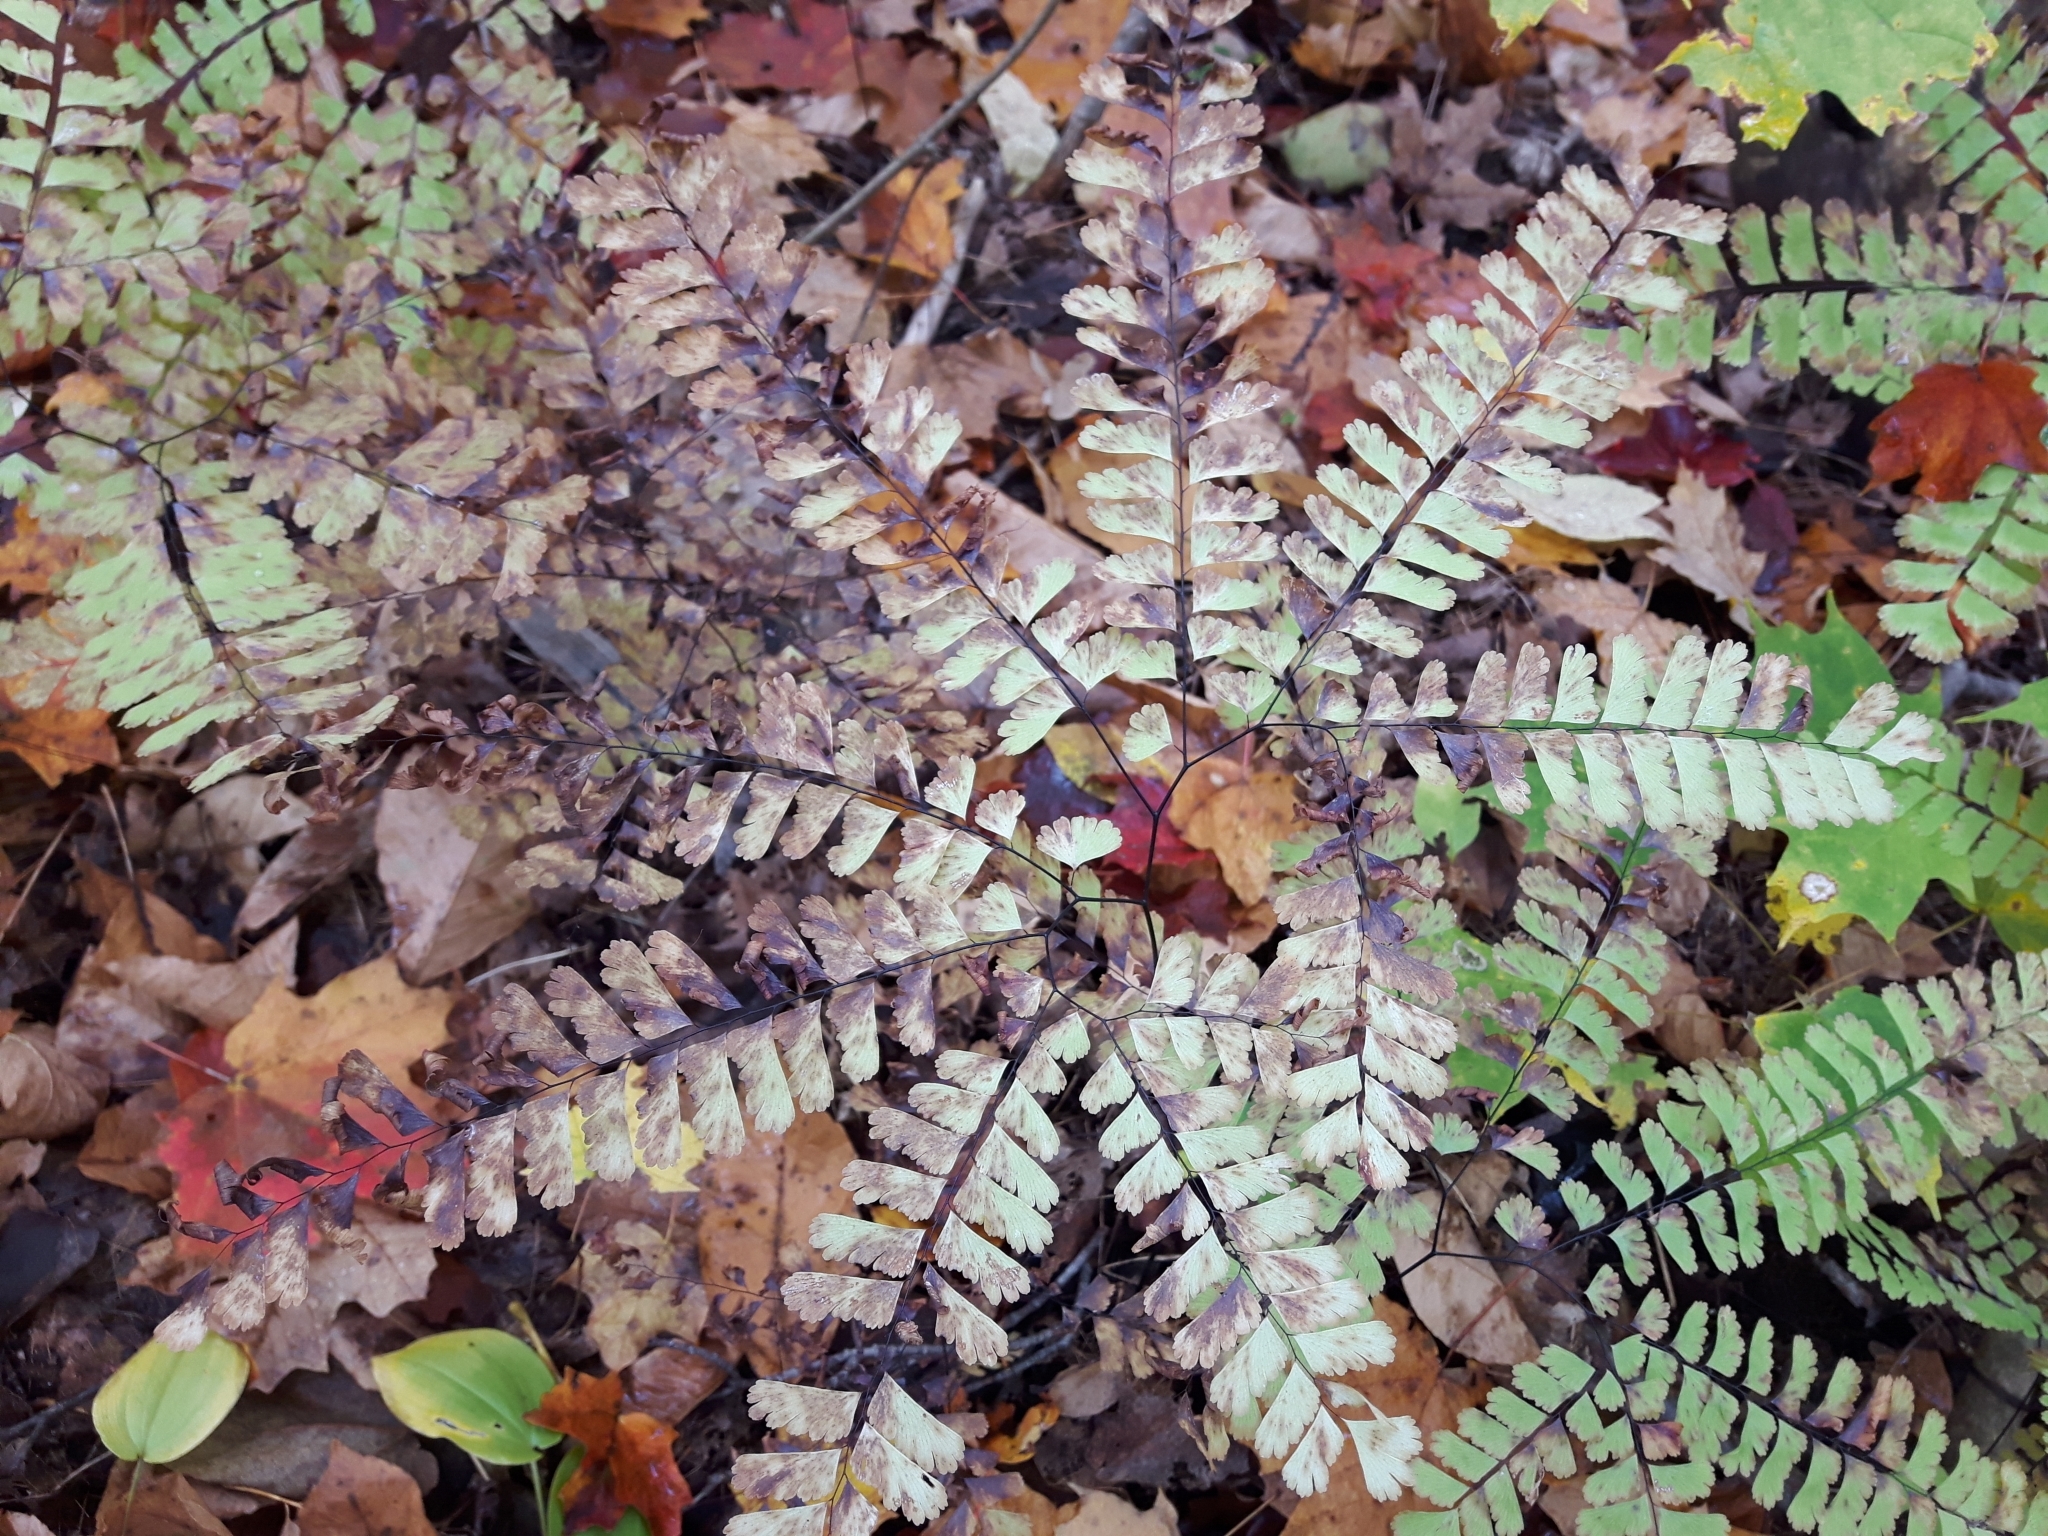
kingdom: Plantae
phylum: Tracheophyta
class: Polypodiopsida
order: Polypodiales
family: Pteridaceae
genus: Adiantum
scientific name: Adiantum pedatum
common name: Five-finger fern
